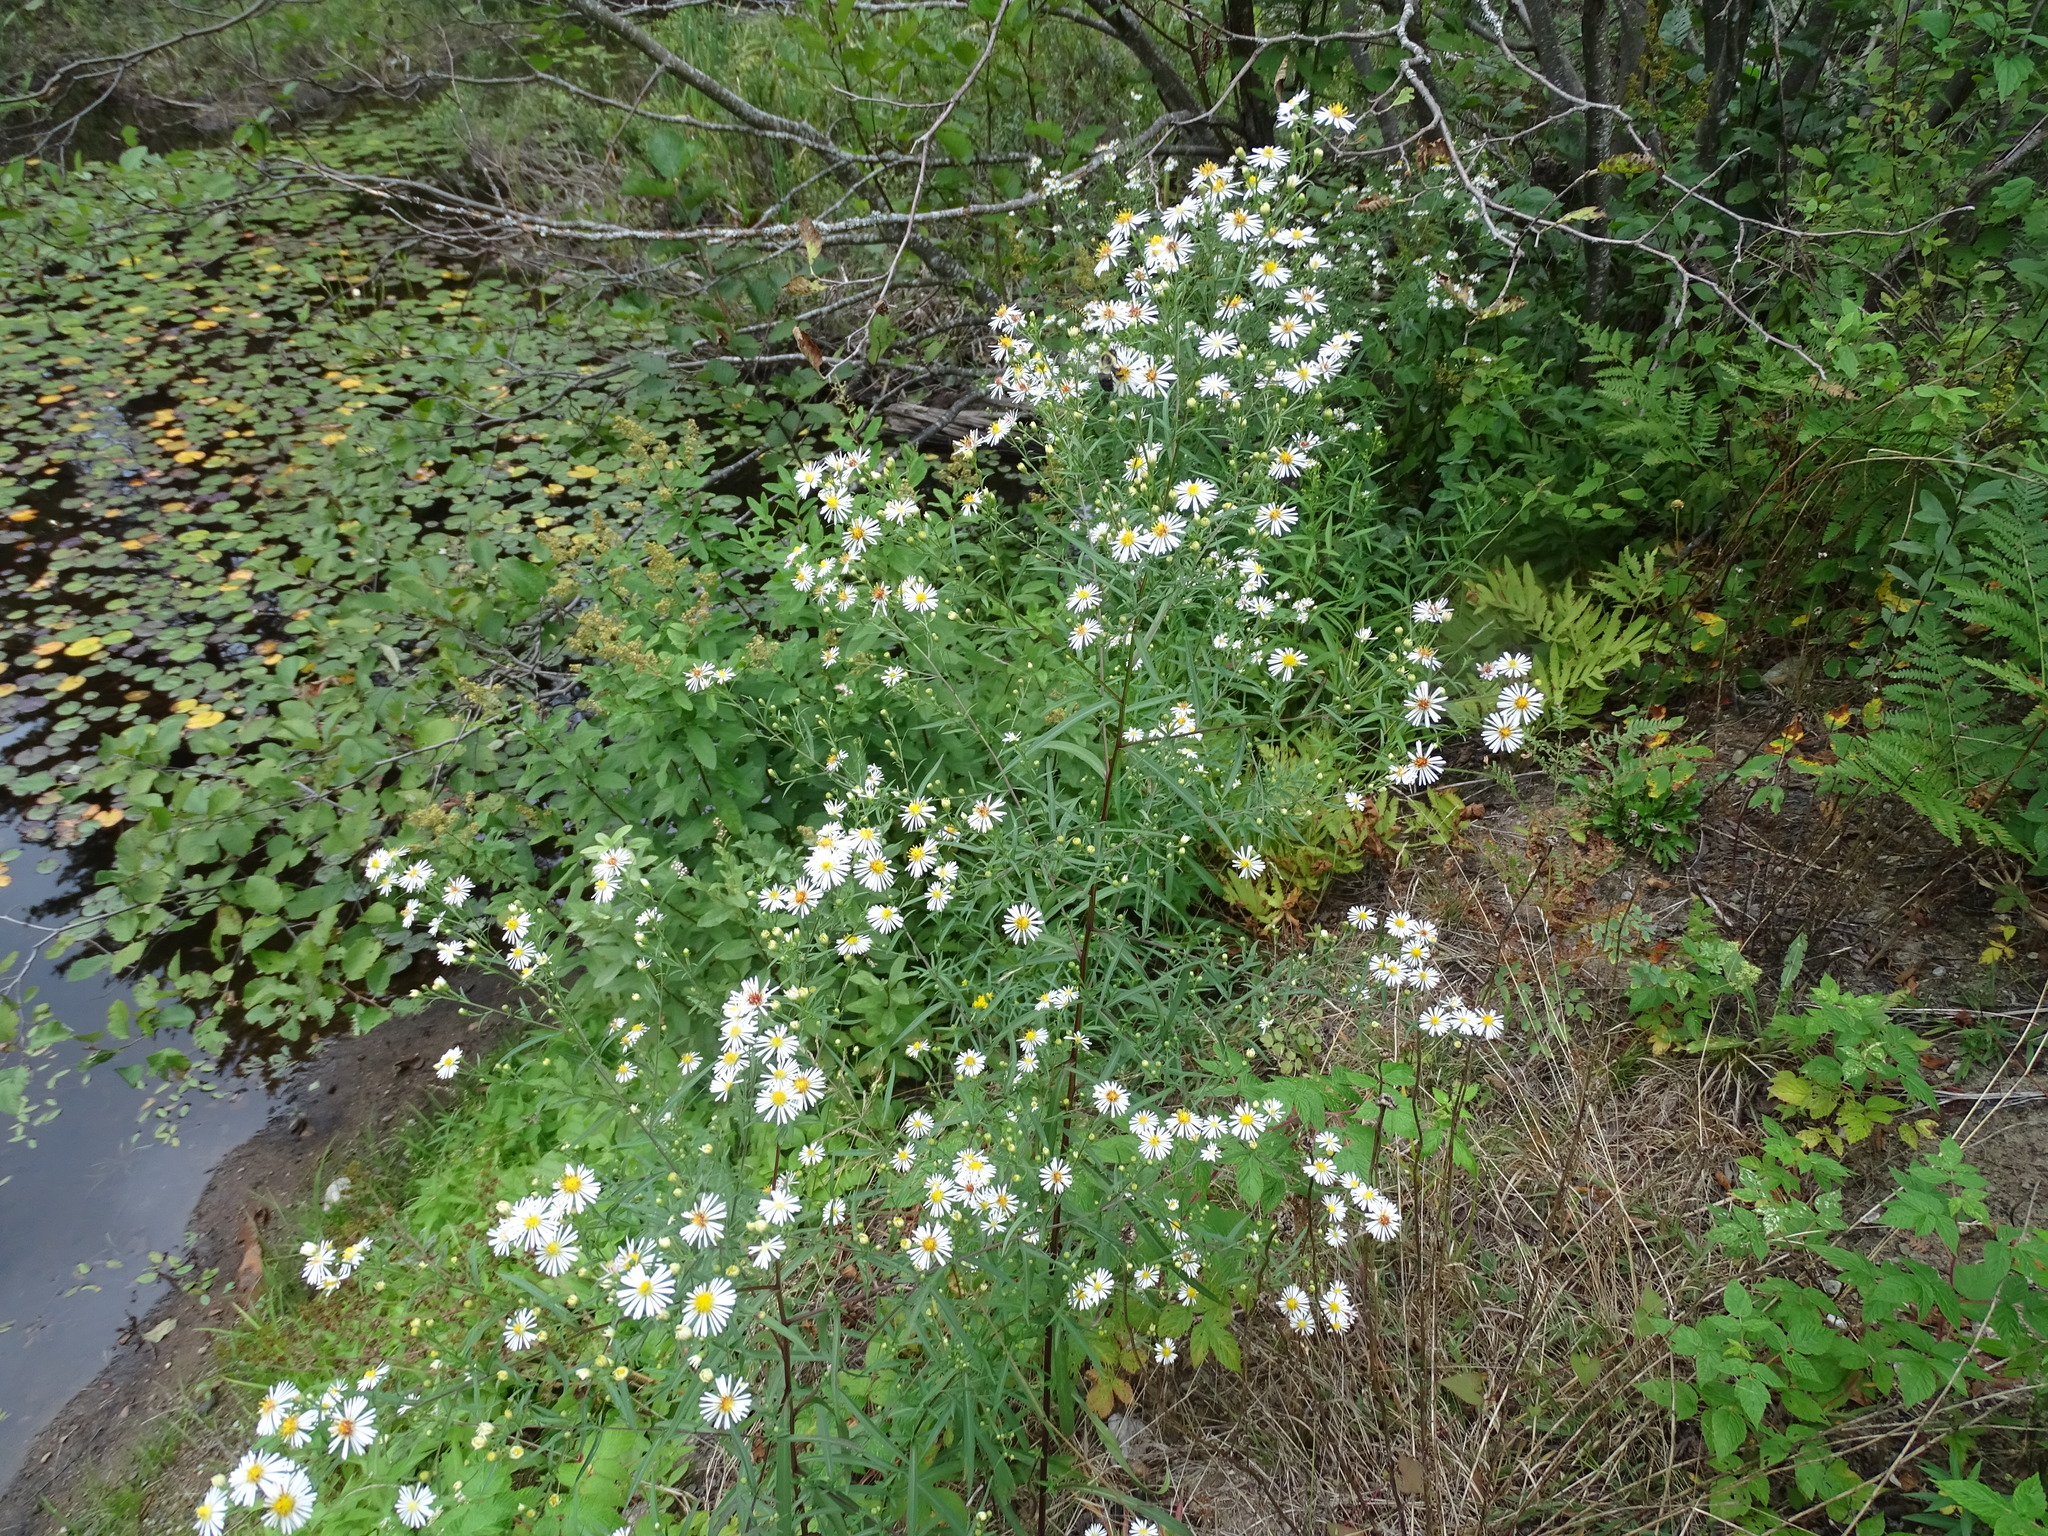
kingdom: Plantae
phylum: Tracheophyta
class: Magnoliopsida
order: Asterales
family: Asteraceae
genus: Symphyotrichum
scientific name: Symphyotrichum lanceolatum
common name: Panicled aster
